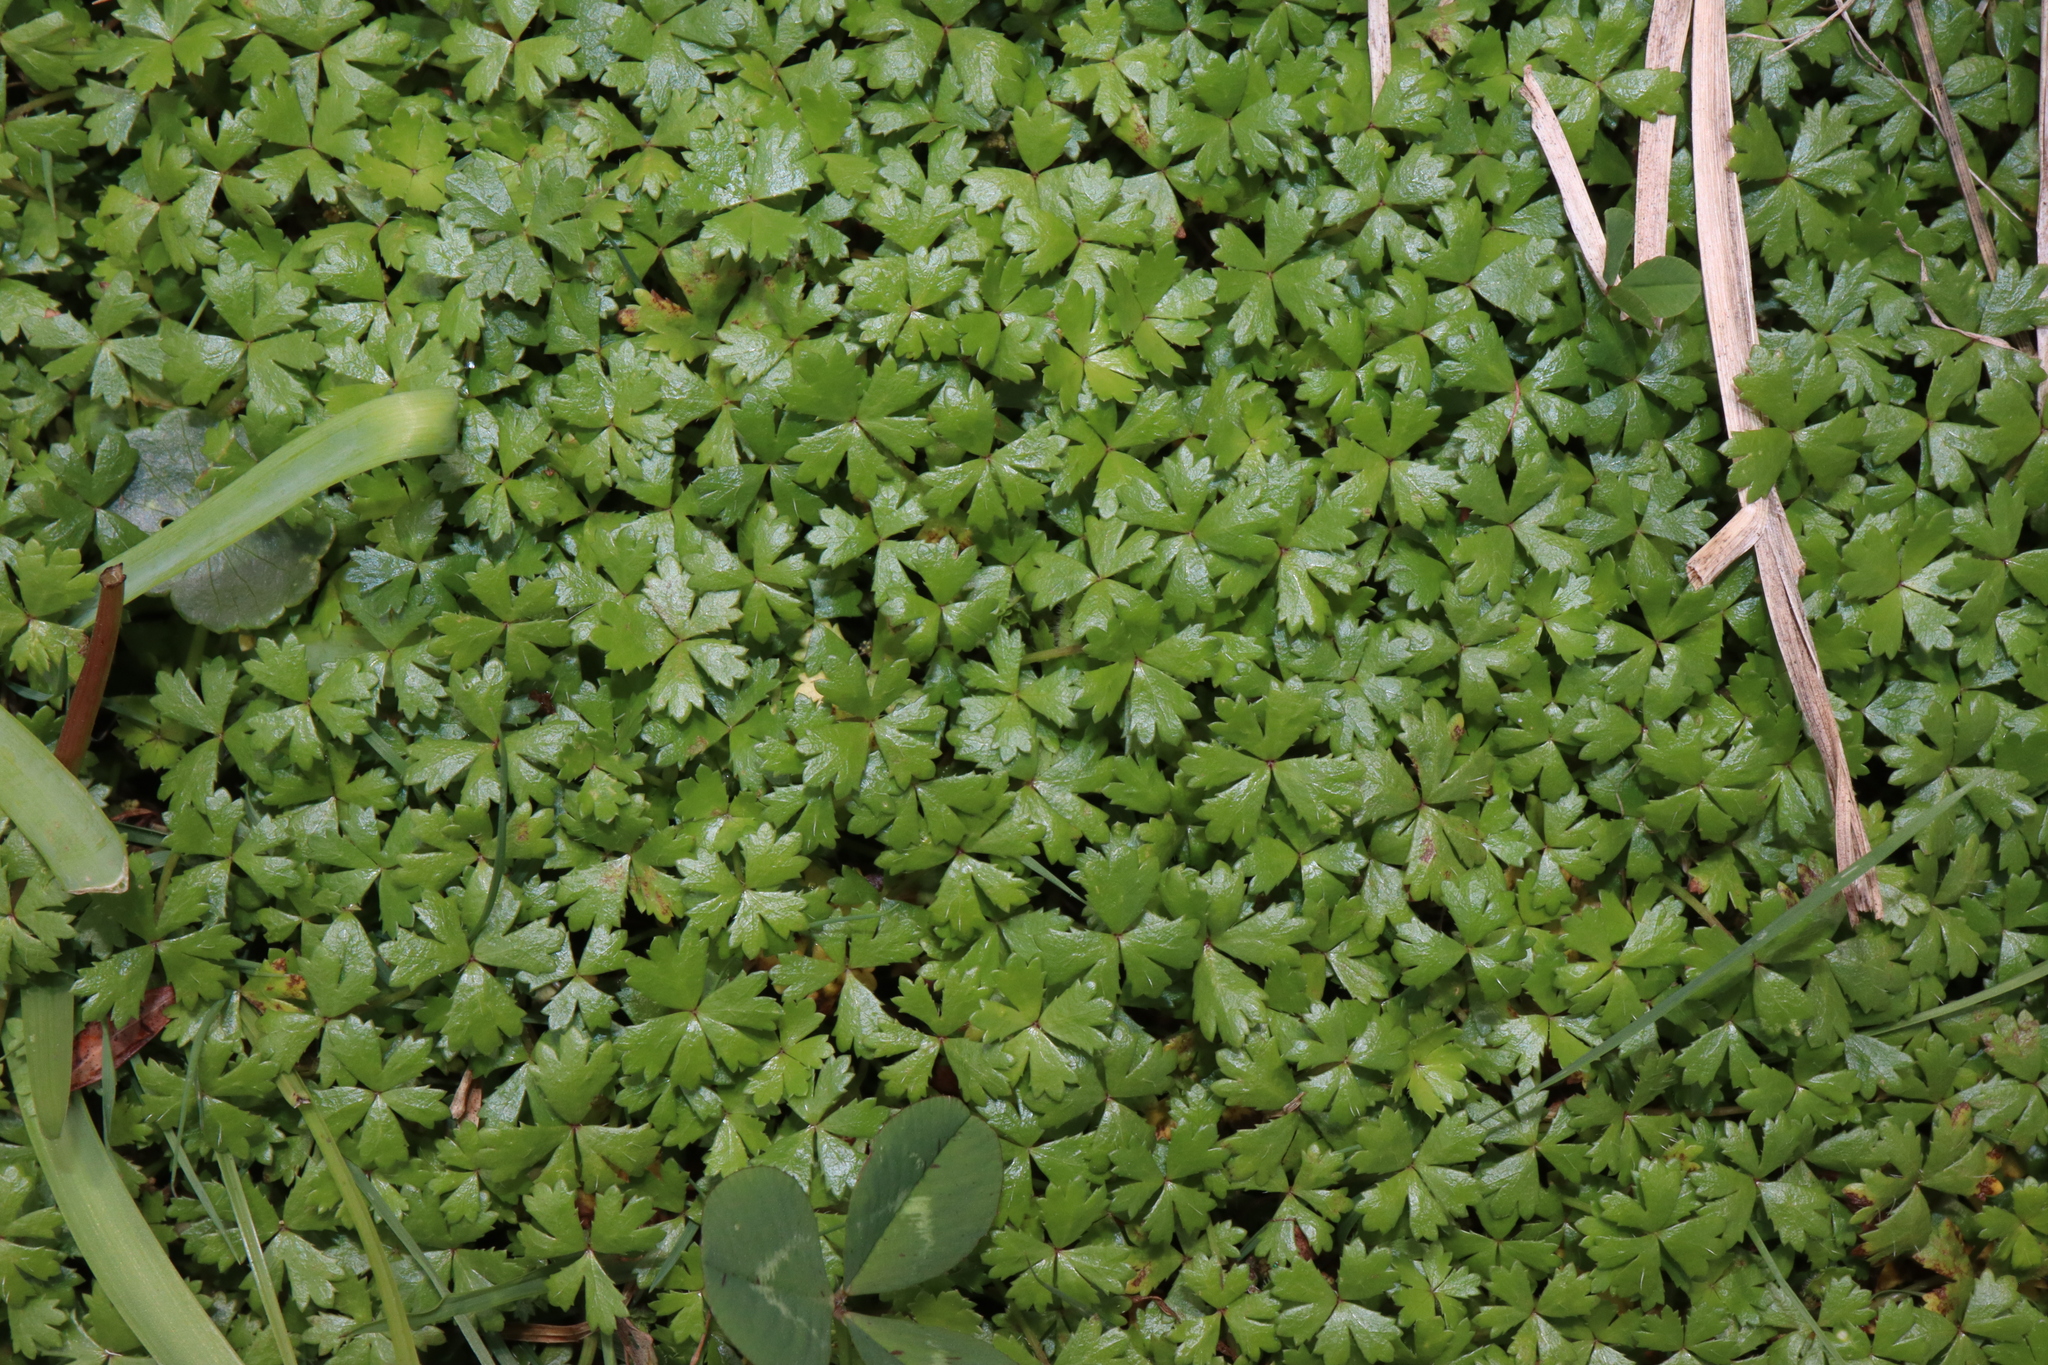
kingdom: Plantae
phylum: Tracheophyta
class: Magnoliopsida
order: Apiales
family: Araliaceae
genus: Hydrocotyle
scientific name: Hydrocotyle tripartita
